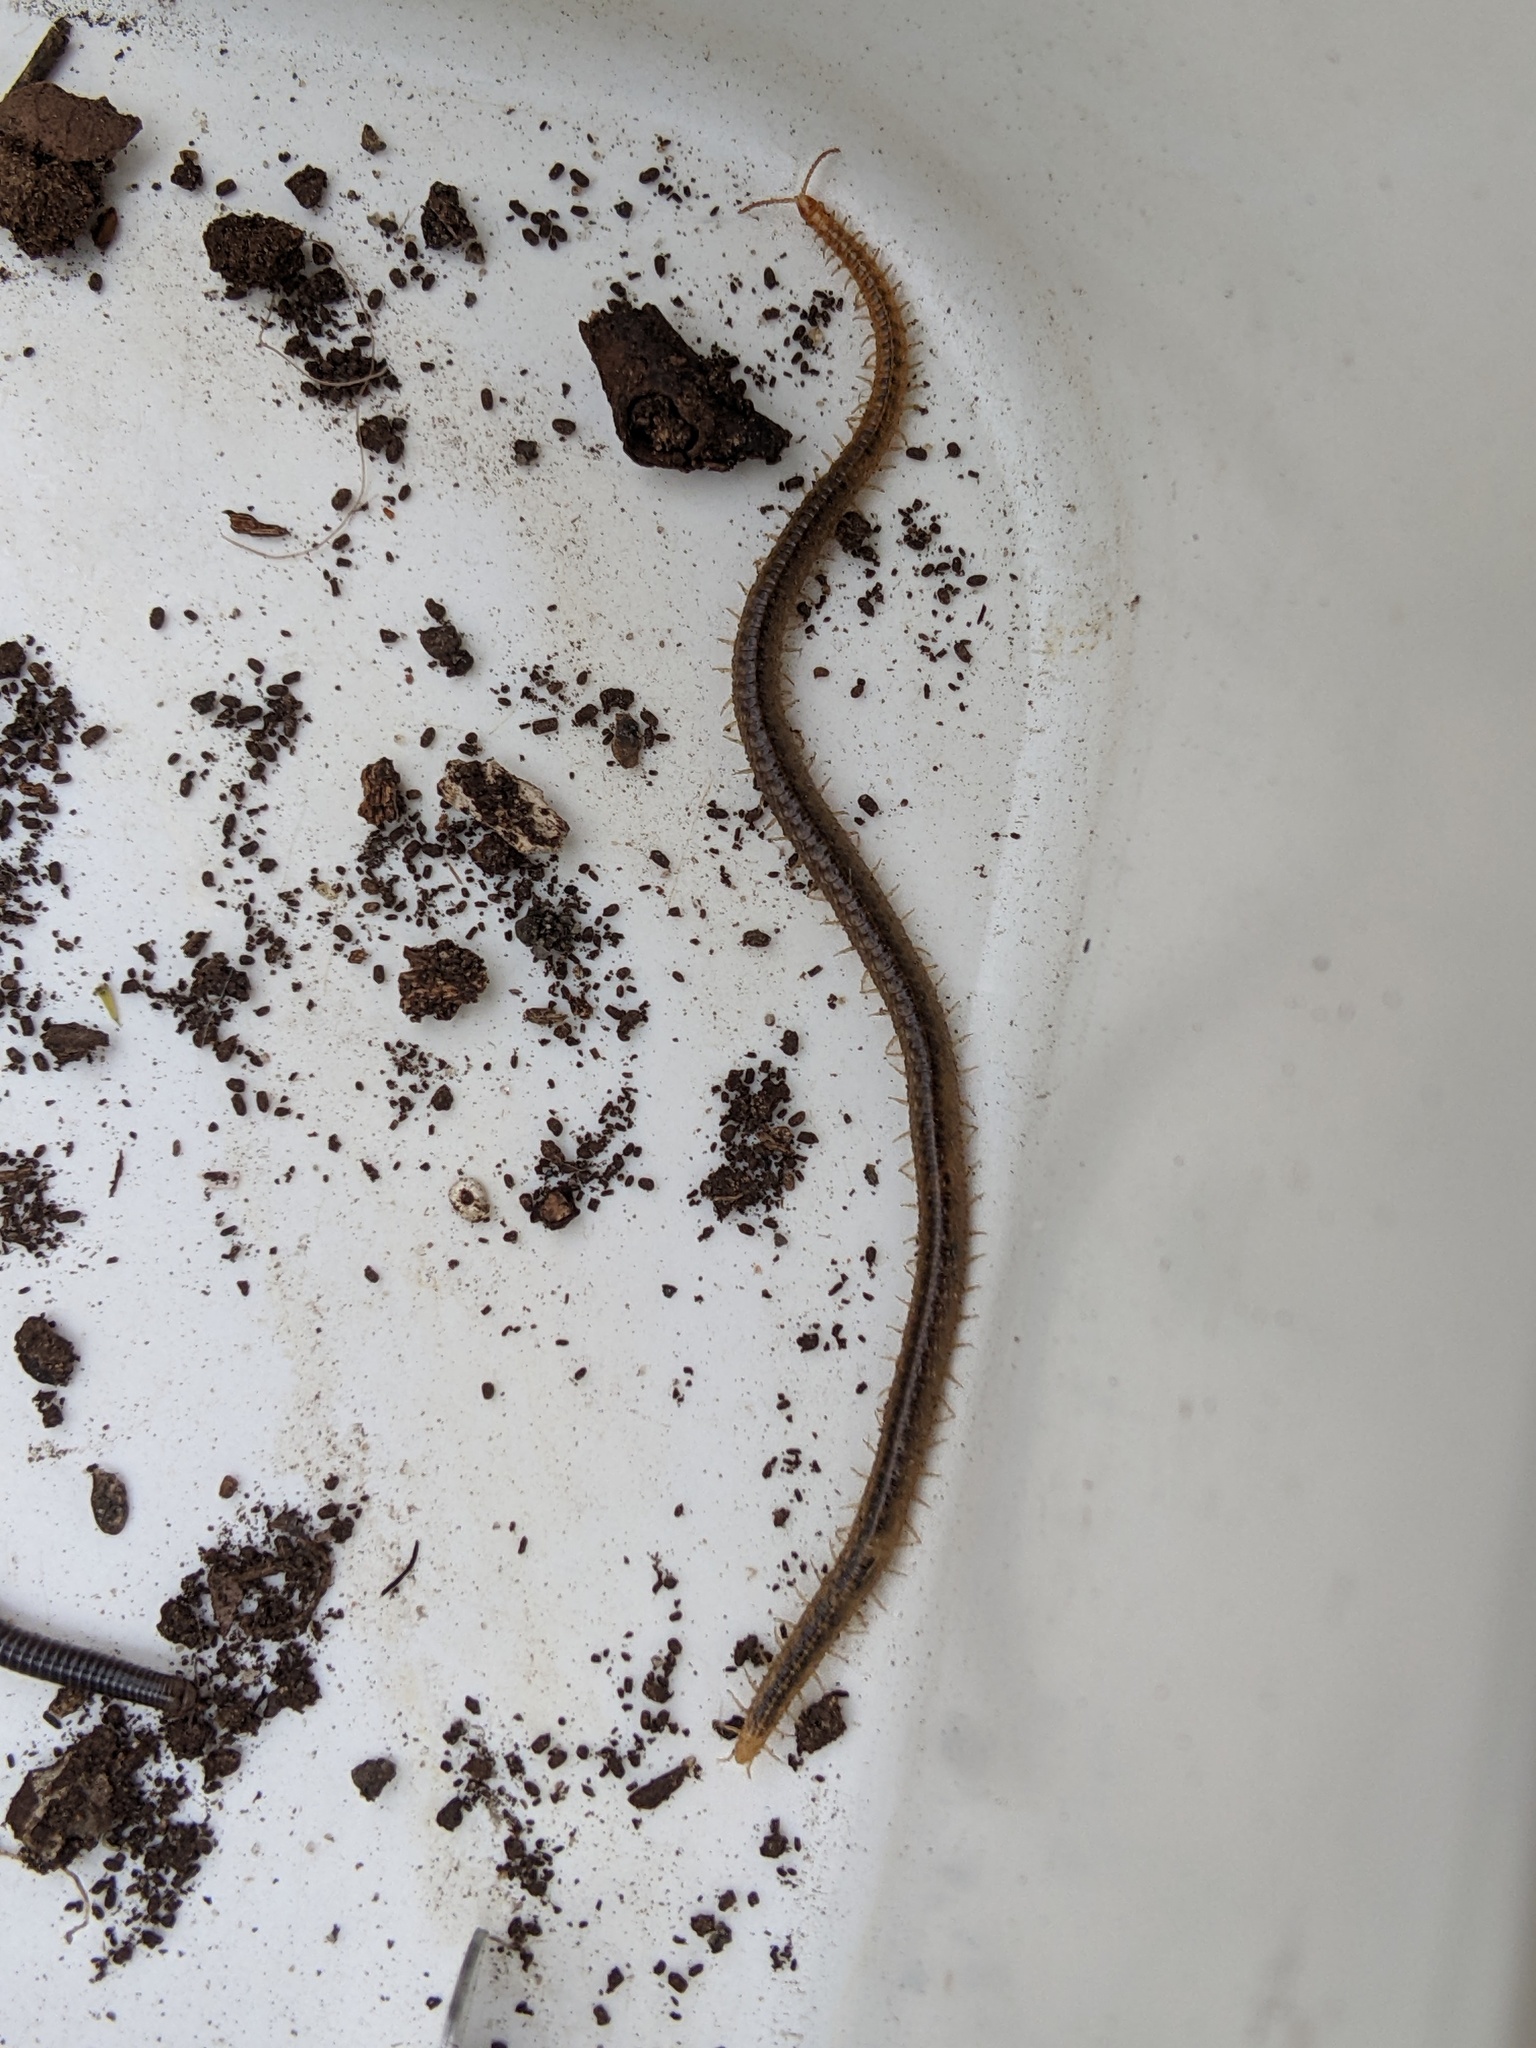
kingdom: Animalia
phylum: Arthropoda
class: Chilopoda
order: Geophilomorpha
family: Dignathodontidae
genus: Henia
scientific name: Henia vesuviana
